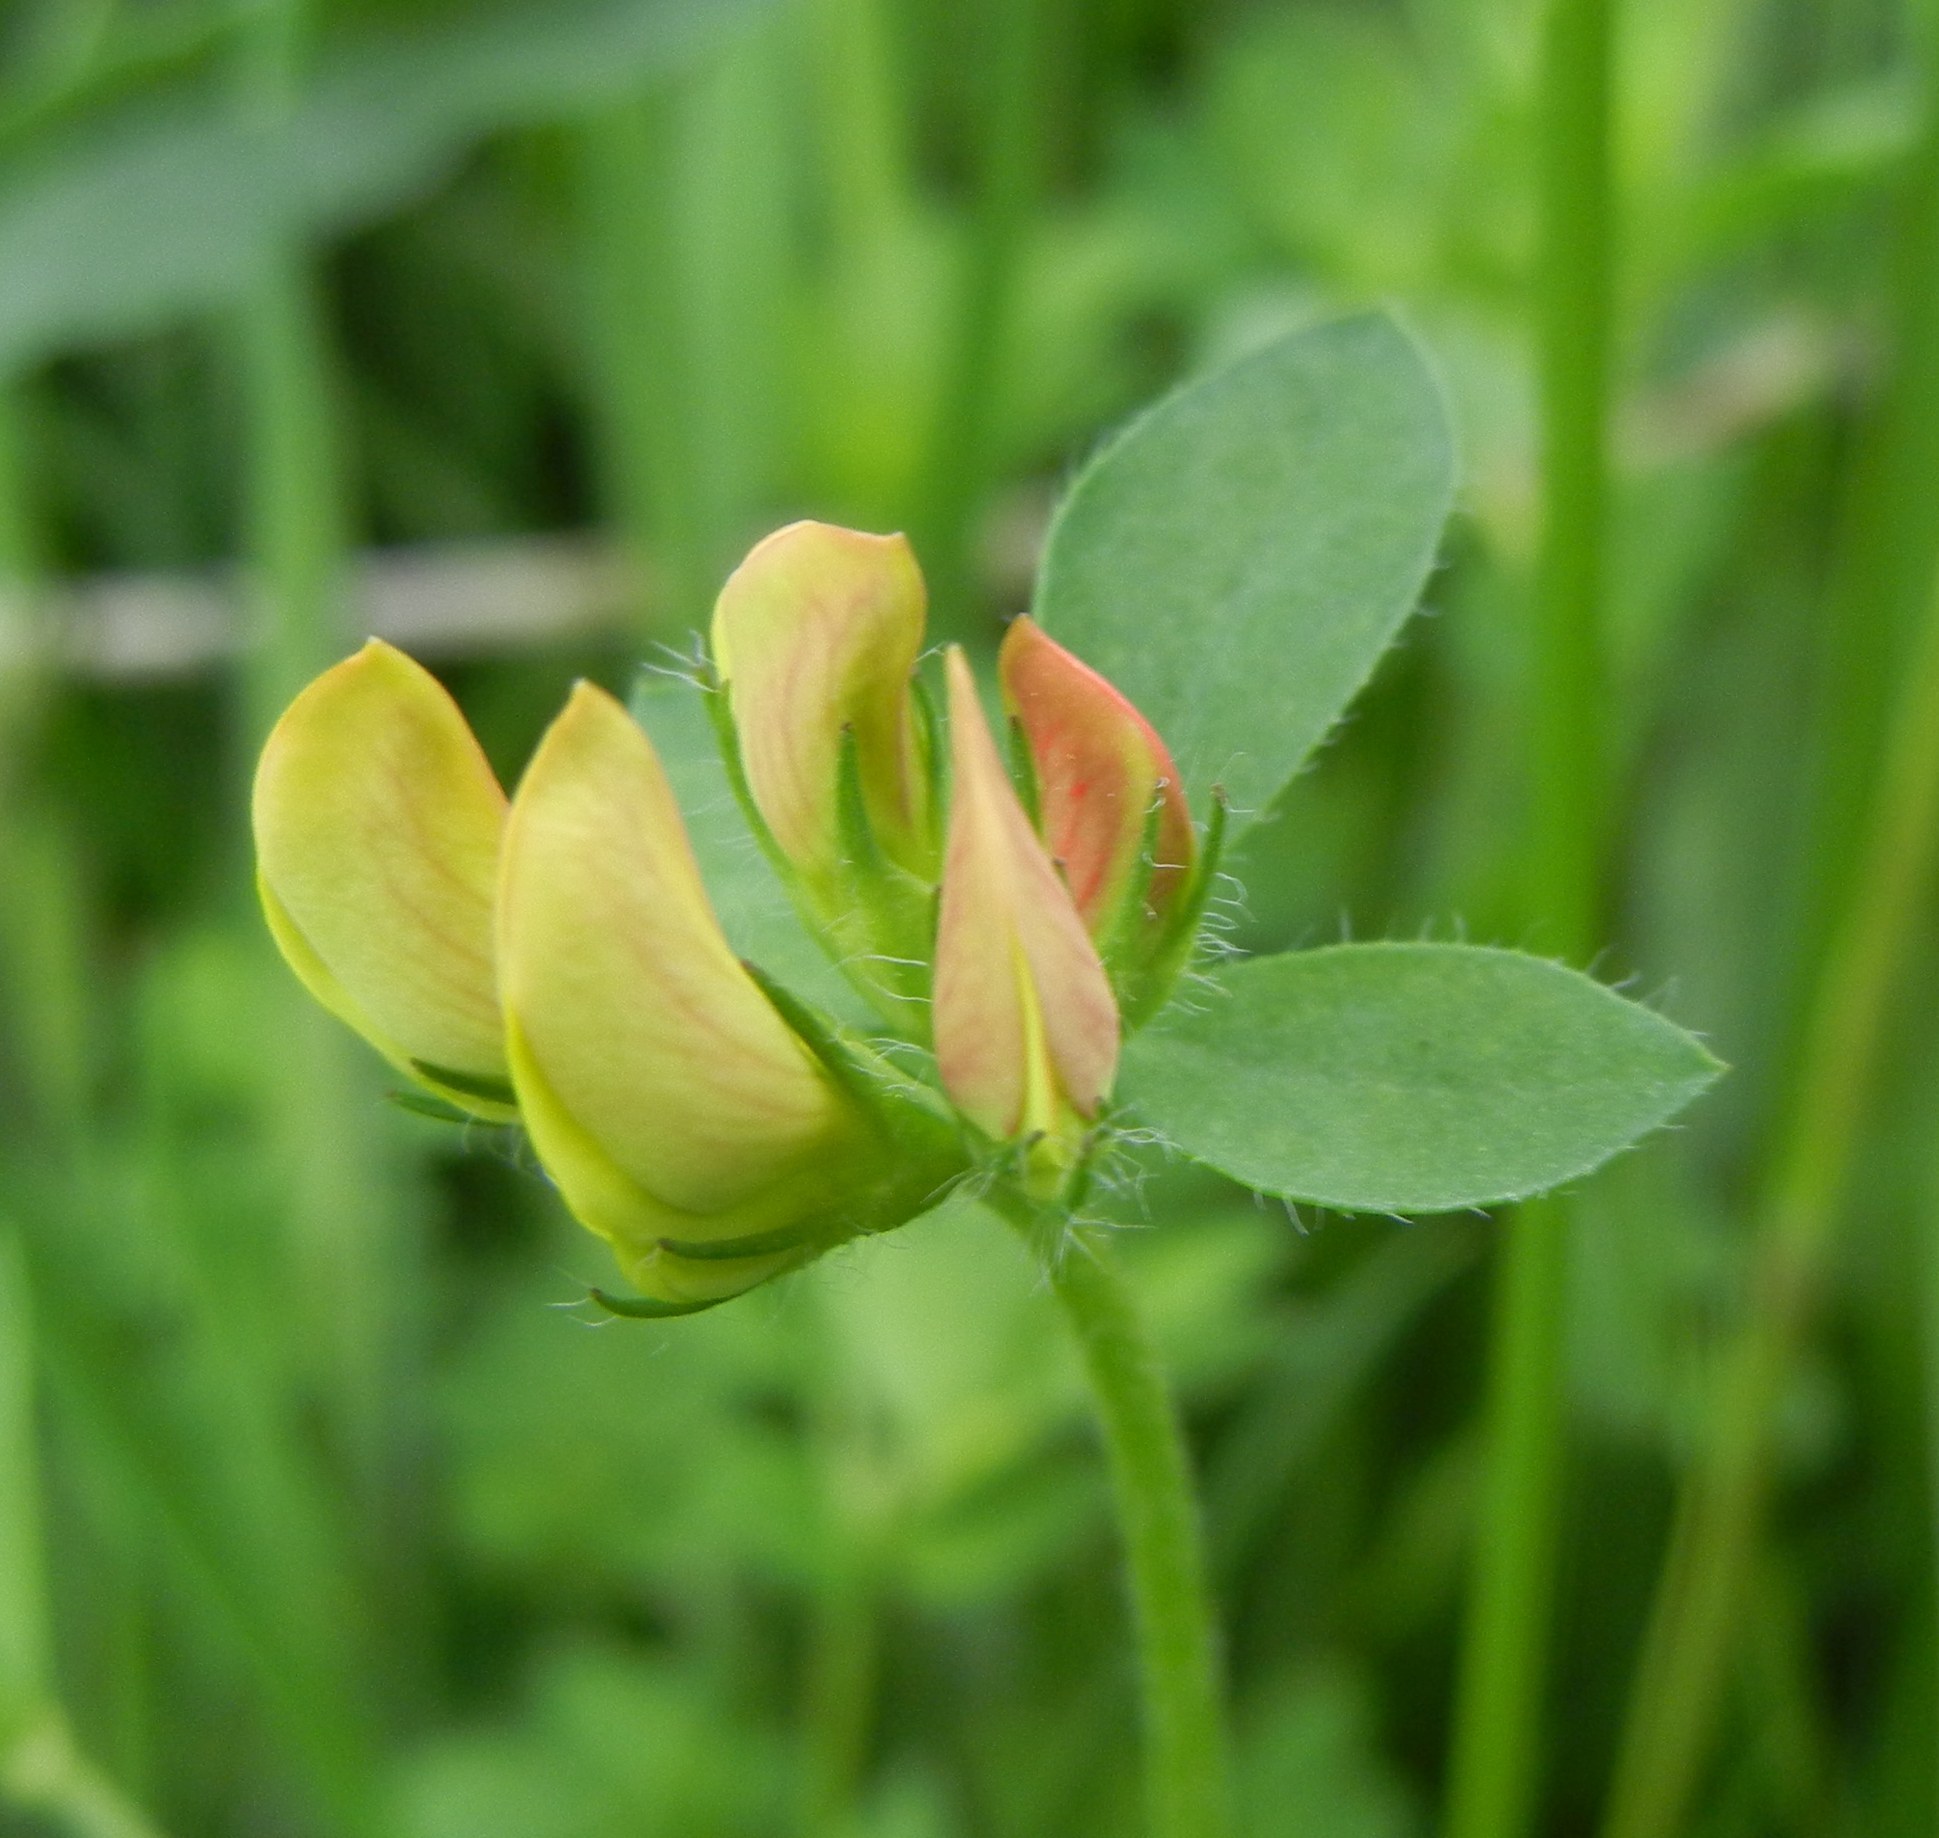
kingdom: Plantae
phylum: Tracheophyta
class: Magnoliopsida
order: Fabales
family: Fabaceae
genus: Lotus
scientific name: Lotus corniculatus
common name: Common bird's-foot-trefoil
